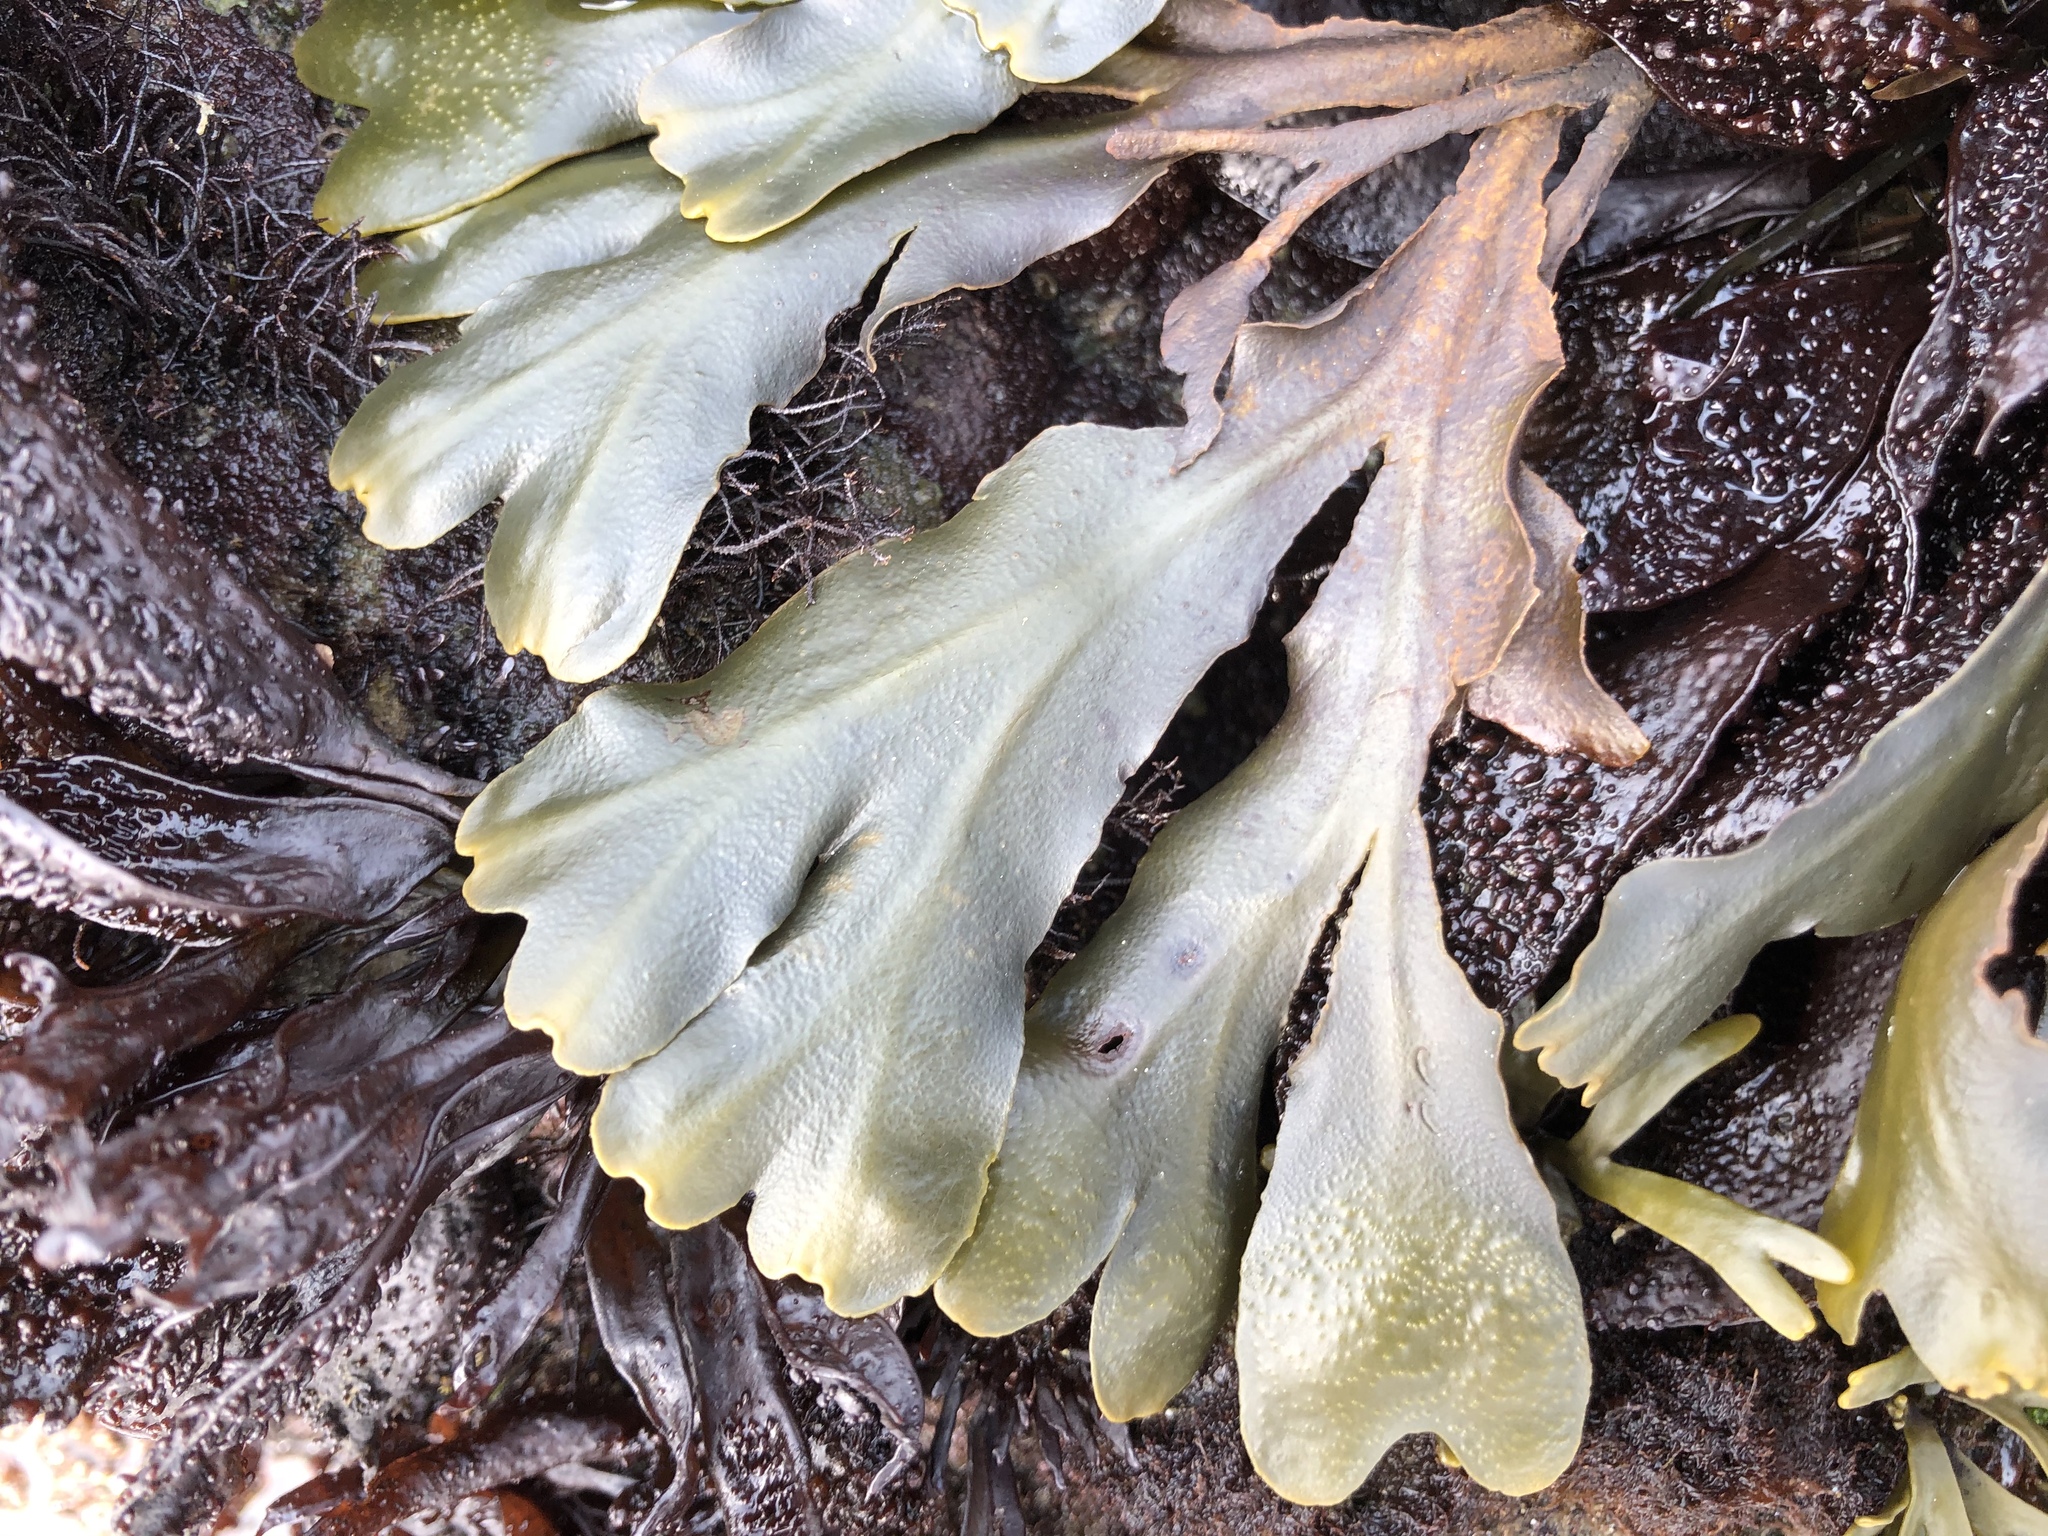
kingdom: Chromista
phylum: Ochrophyta
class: Phaeophyceae
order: Fucales
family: Fucaceae
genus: Fucus
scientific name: Fucus distichus
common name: Rockweed
